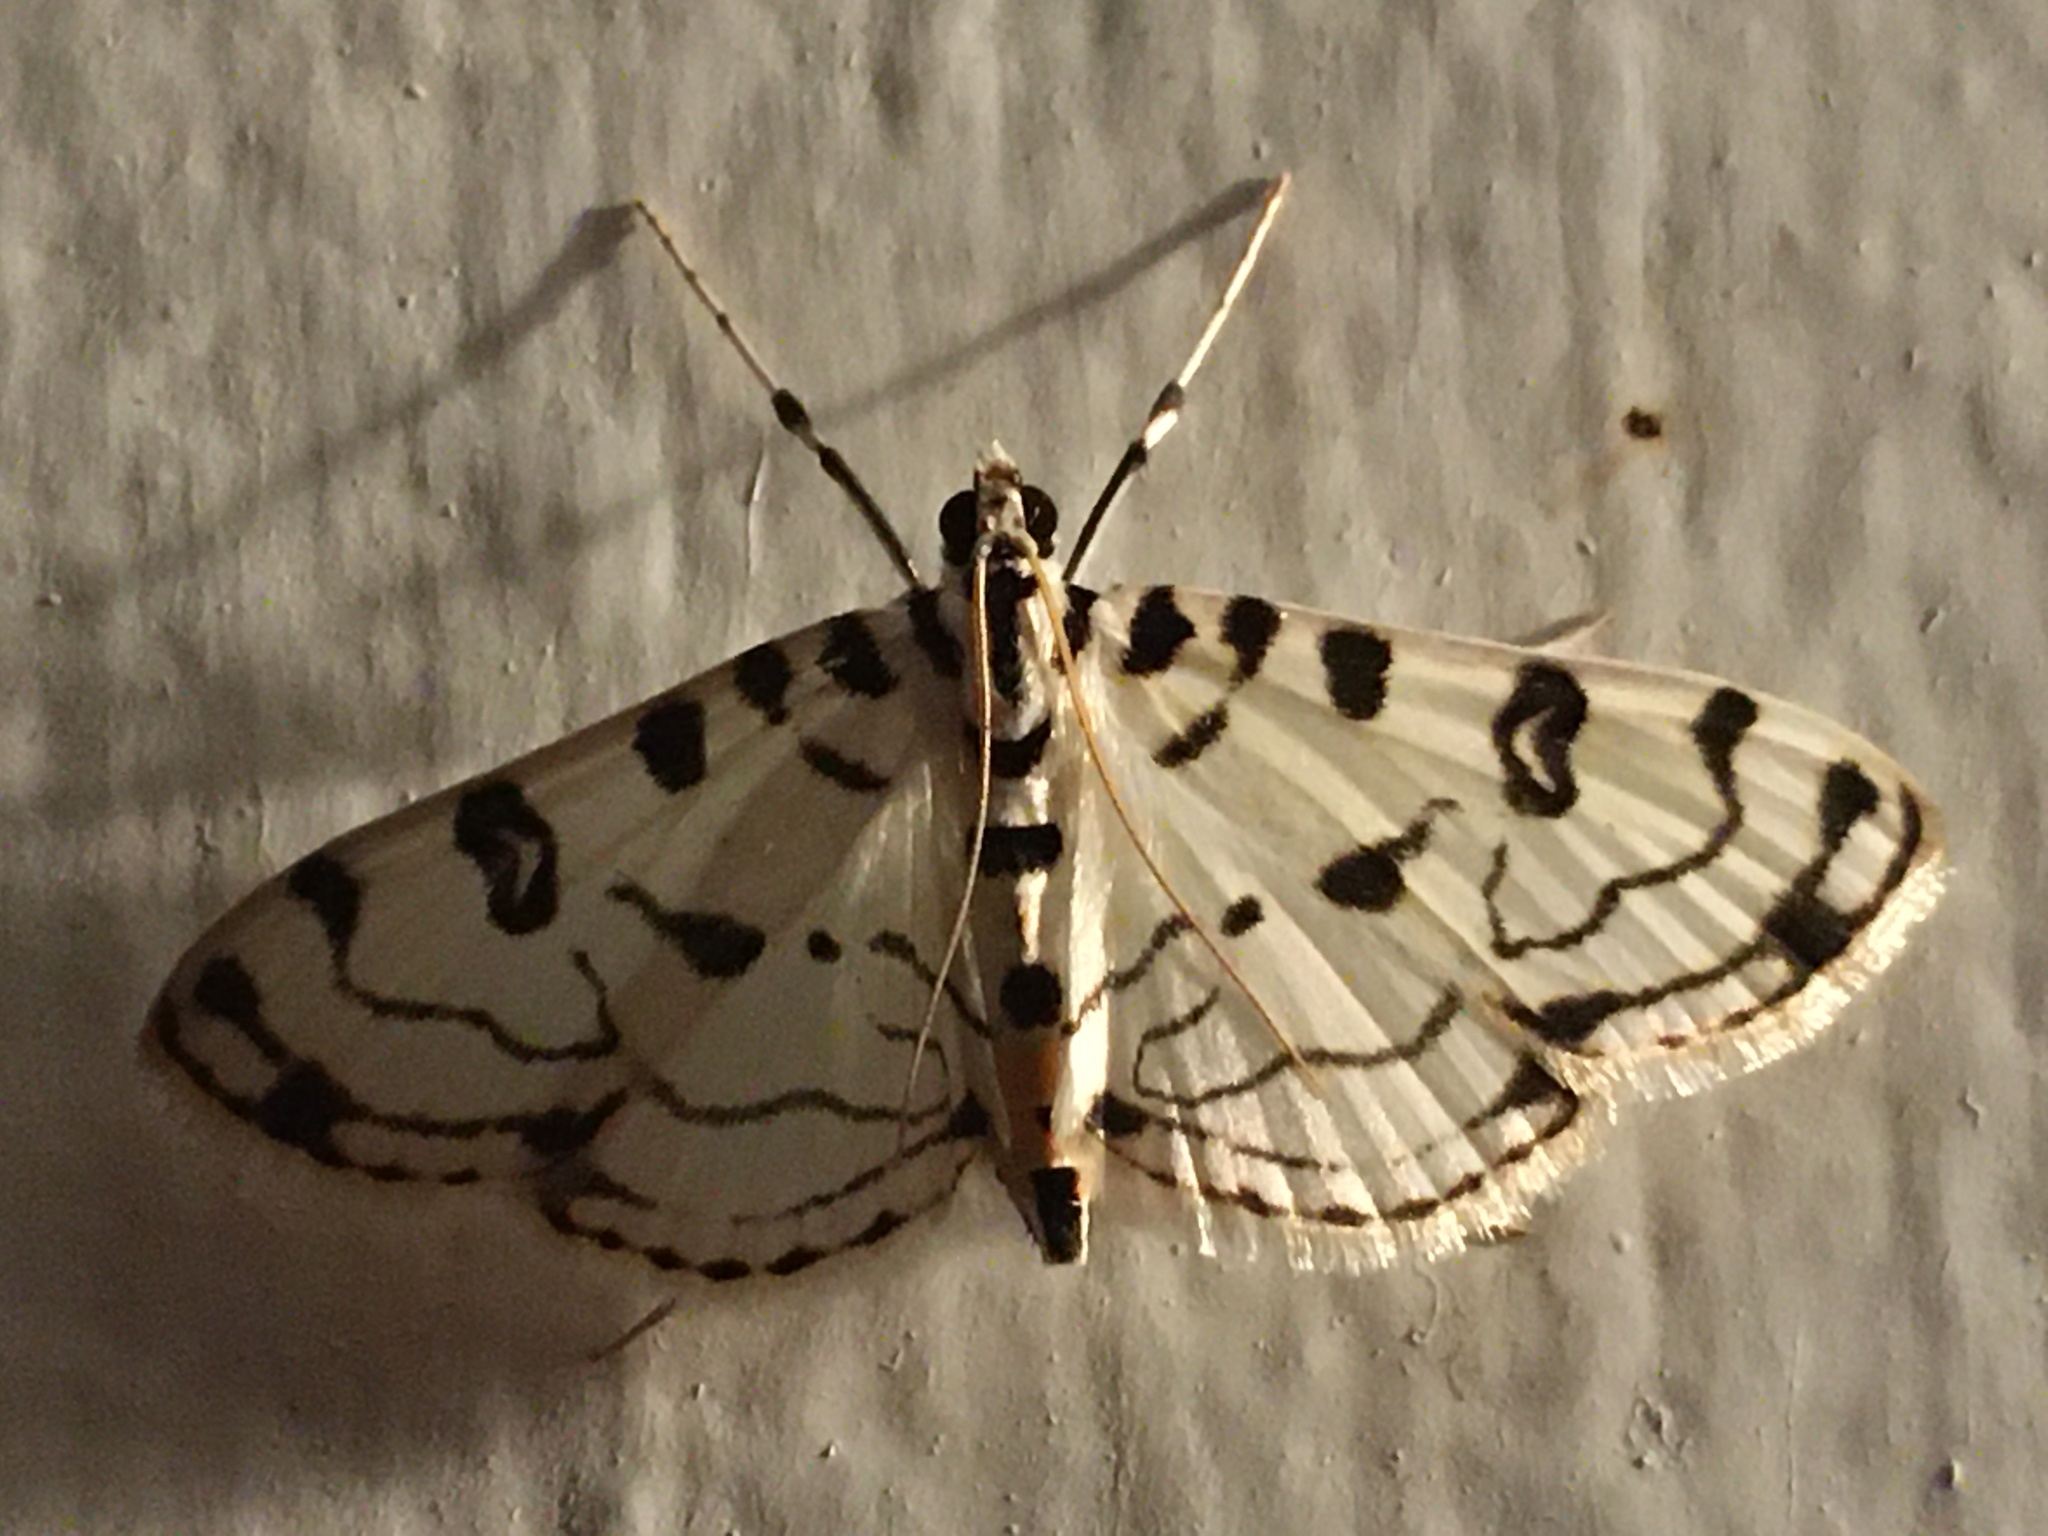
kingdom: Animalia
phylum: Arthropoda
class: Insecta
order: Lepidoptera
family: Crambidae
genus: Conchylodes
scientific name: Conchylodes terminipuncta
